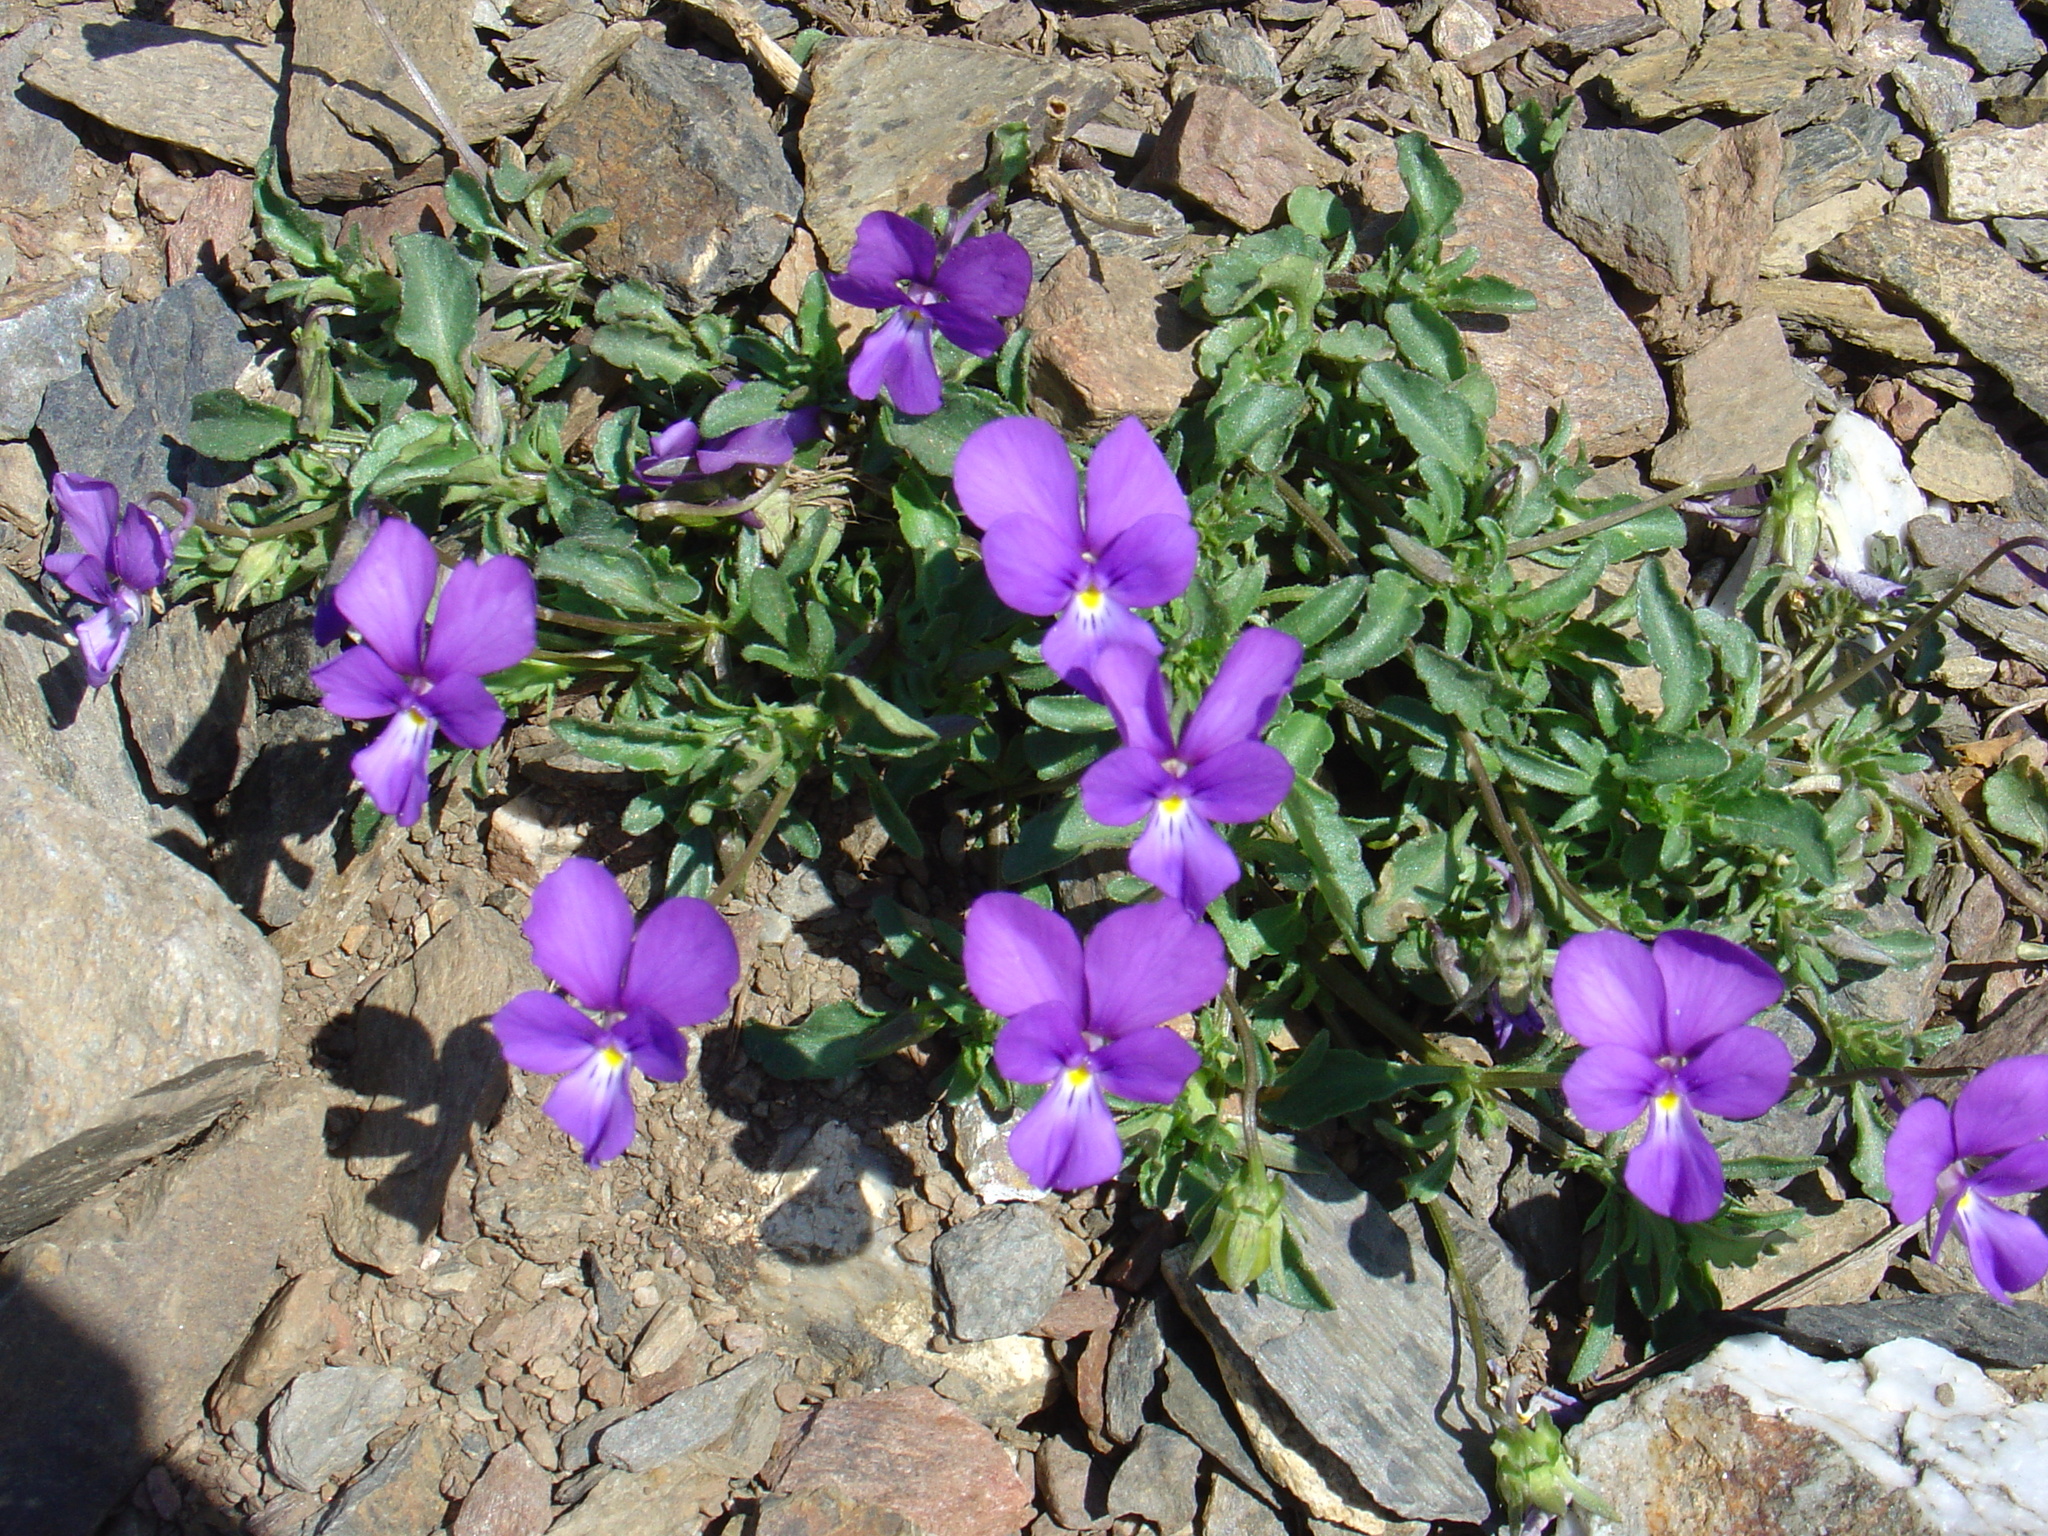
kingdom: Plantae
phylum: Tracheophyta
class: Magnoliopsida
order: Malpighiales
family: Violaceae
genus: Viola
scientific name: Viola bubanii
